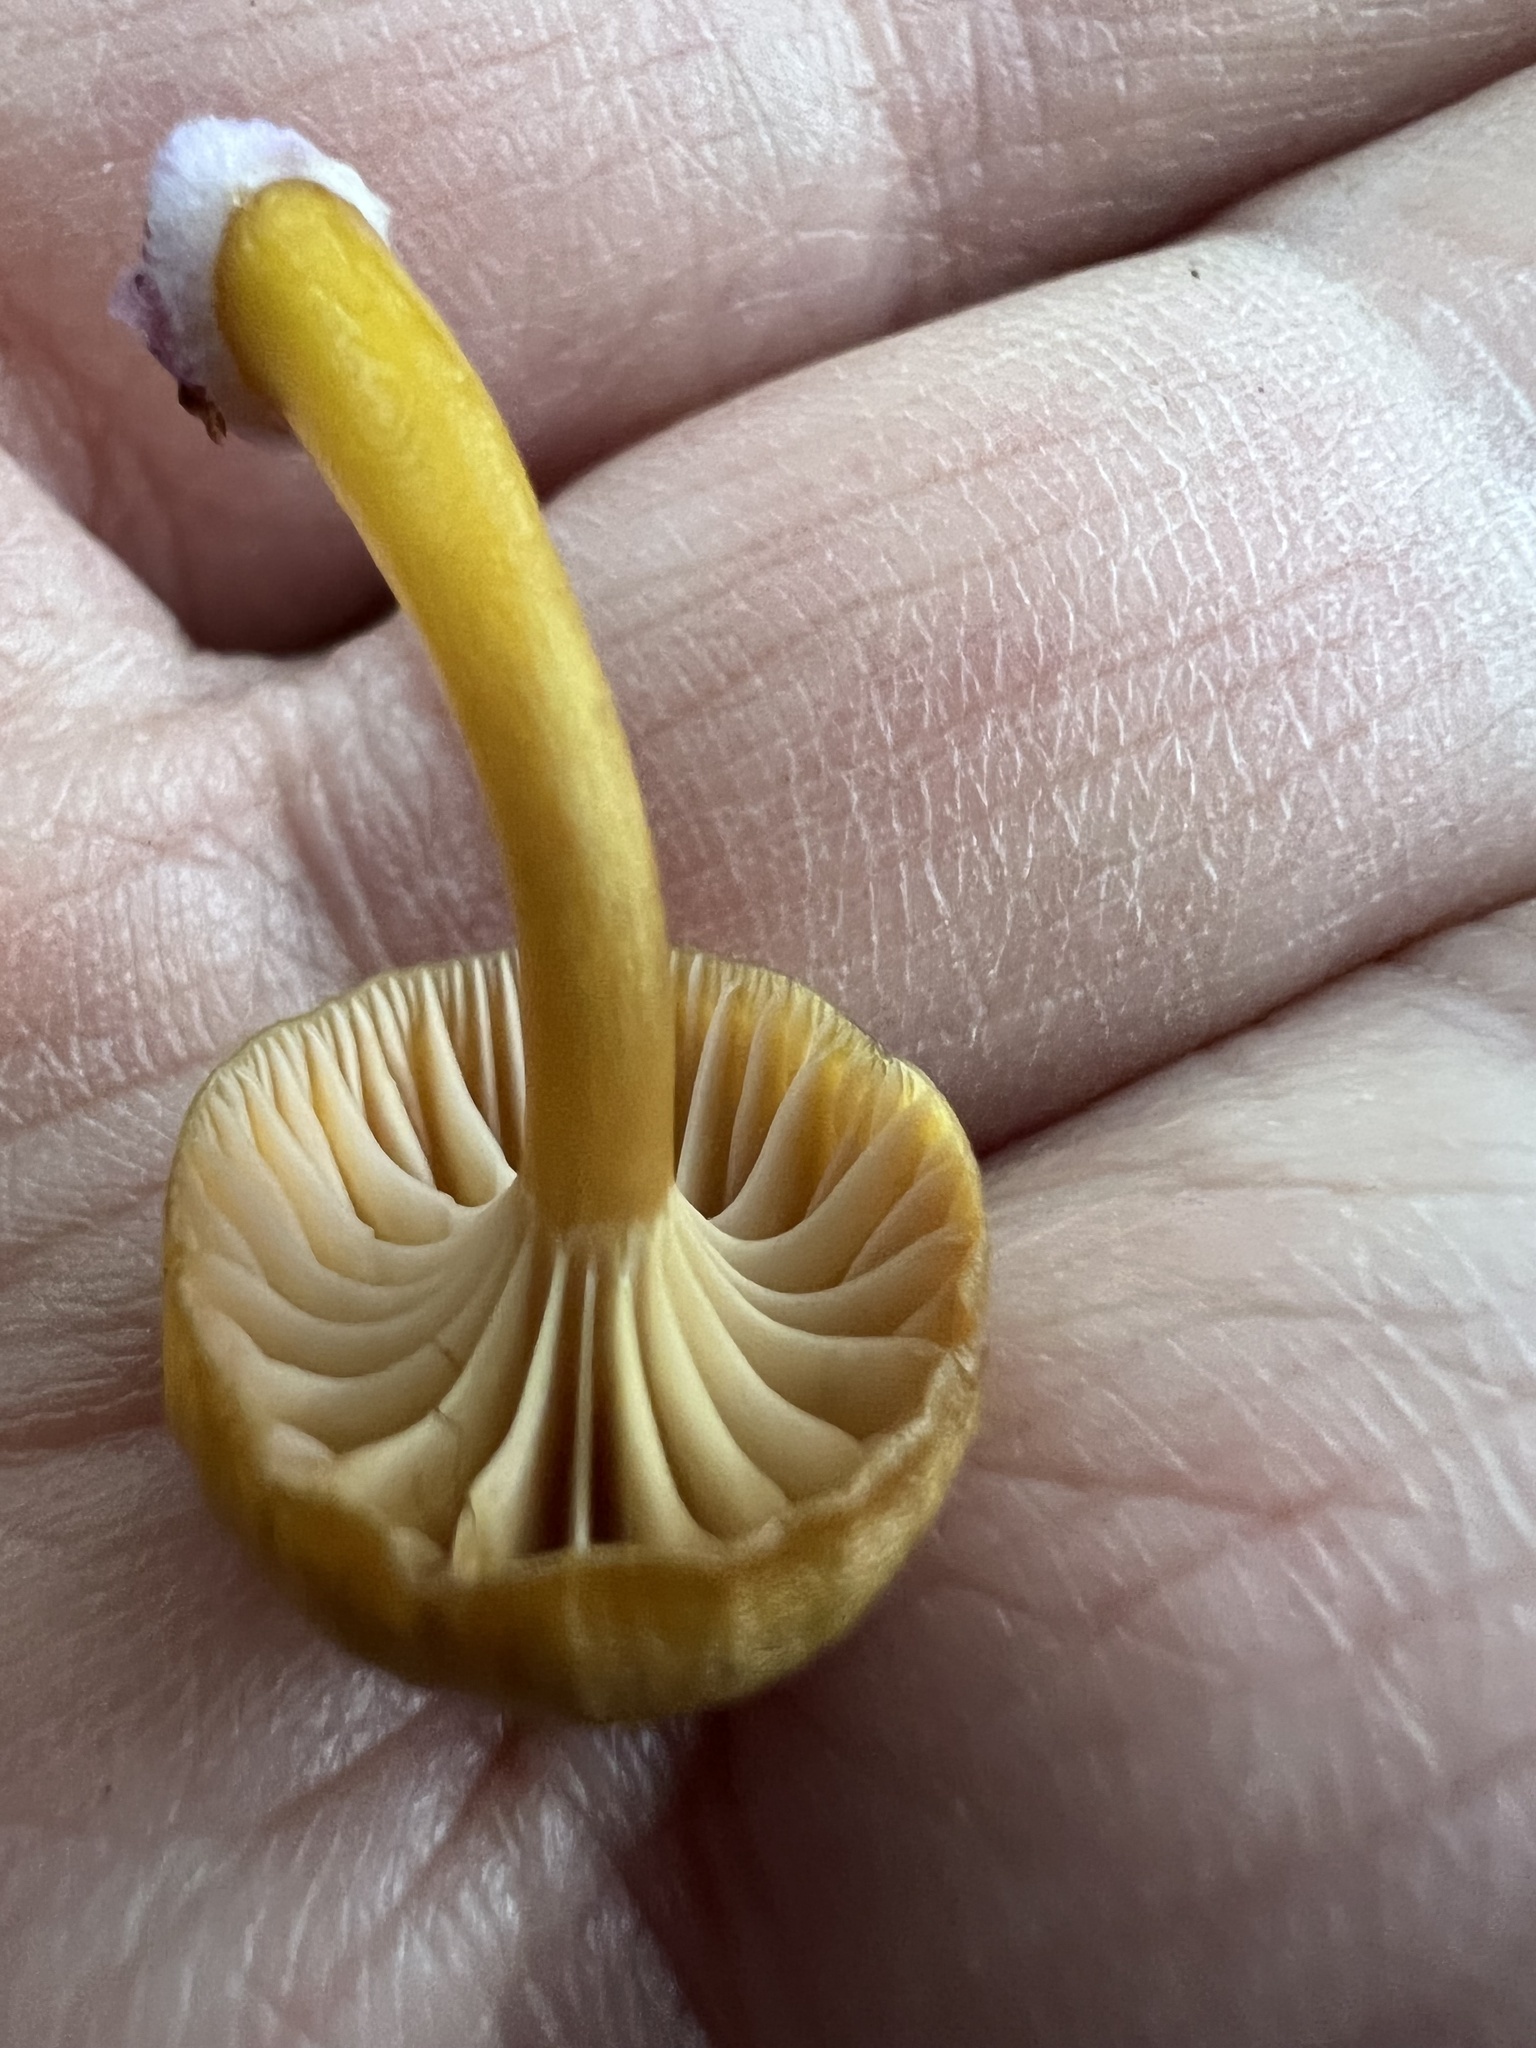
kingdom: Fungi
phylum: Basidiomycota
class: Agaricomycetes
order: Agaricales
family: Hygrophoraceae
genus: Chromosera
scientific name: Chromosera cyanophylla
